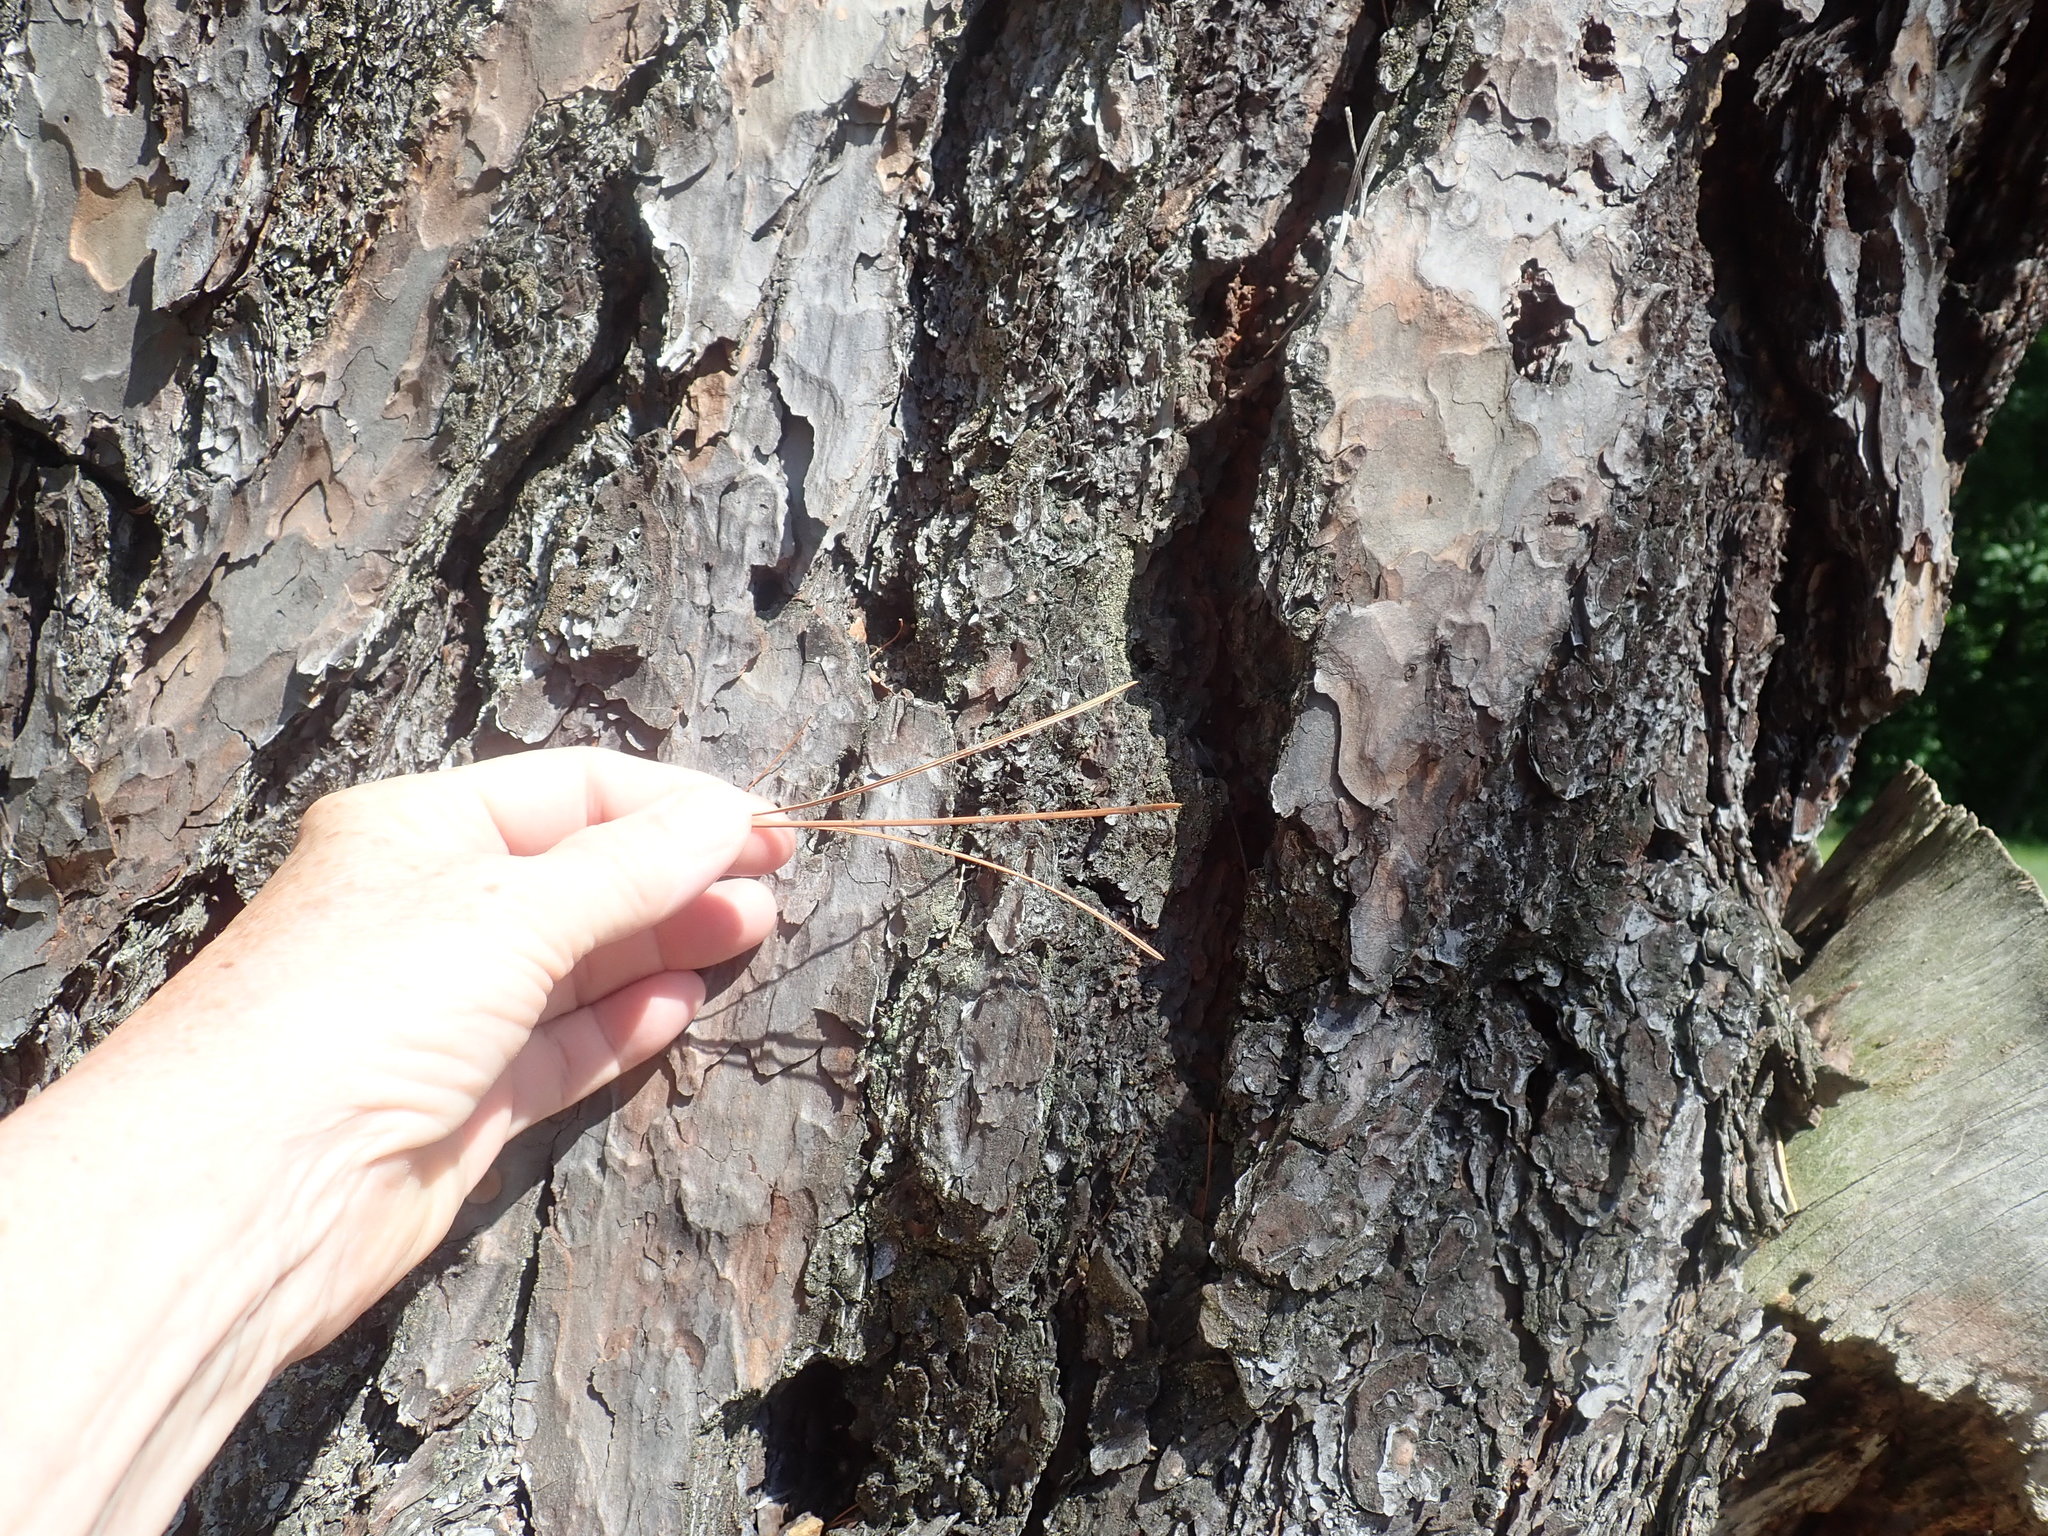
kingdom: Plantae
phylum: Tracheophyta
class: Pinopsida
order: Pinales
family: Pinaceae
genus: Pinus
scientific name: Pinus rigida
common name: Pitch pine
